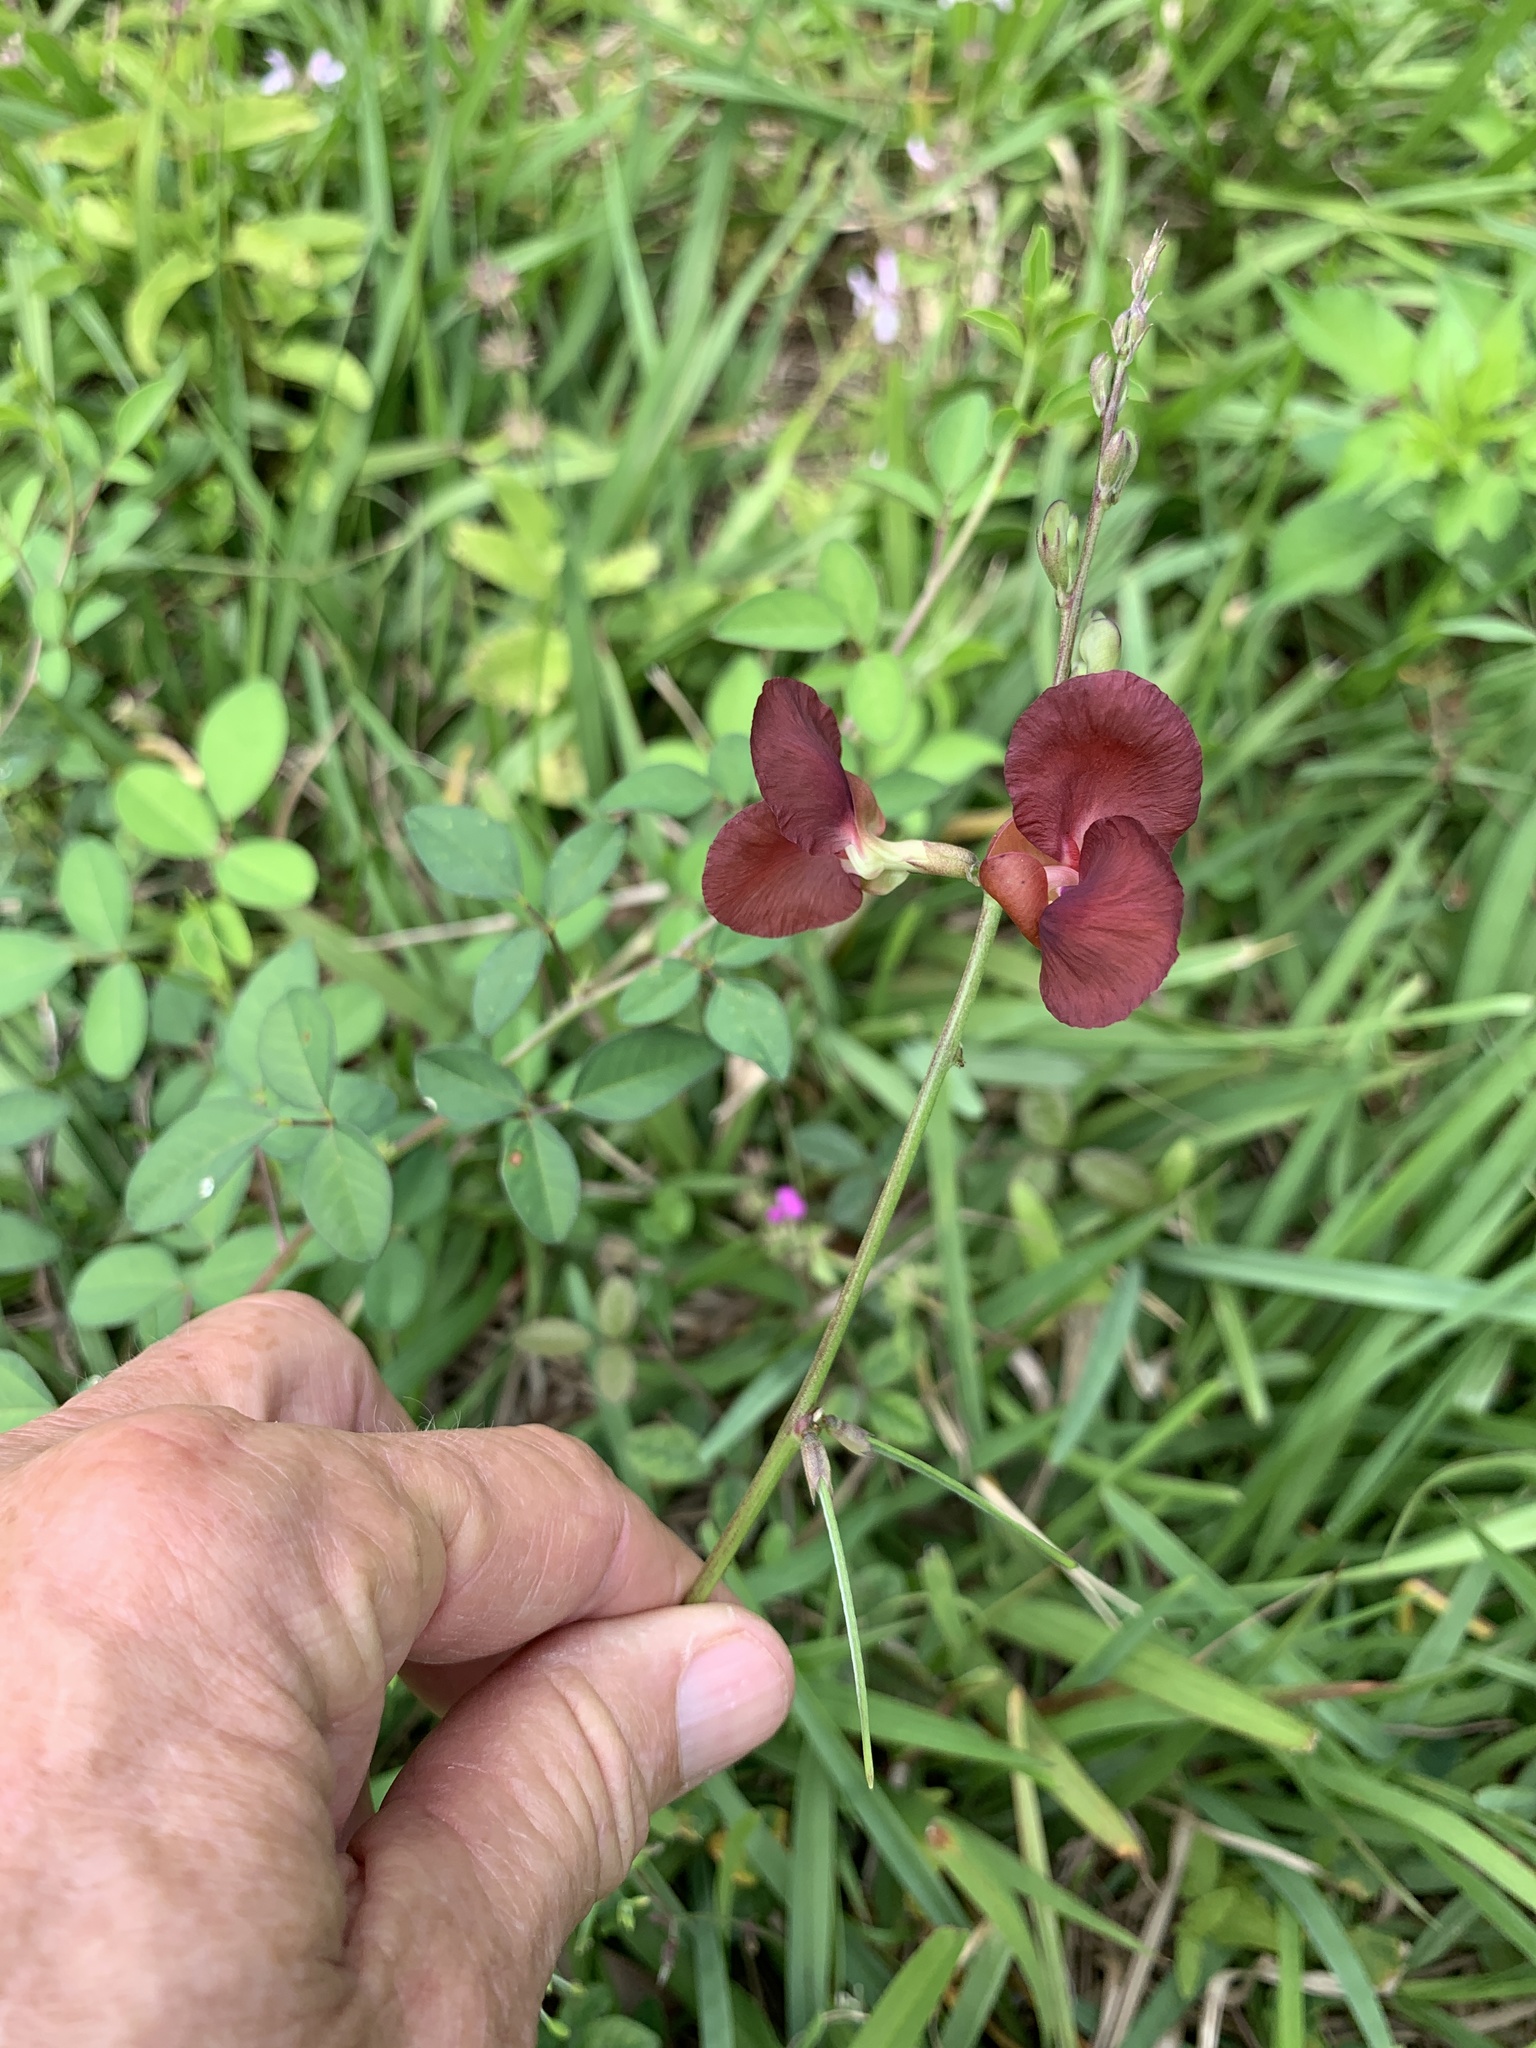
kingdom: Plantae
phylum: Tracheophyta
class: Magnoliopsida
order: Fabales
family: Fabaceae
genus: Macroptilium
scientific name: Macroptilium lathyroides
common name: Wild bushbean
